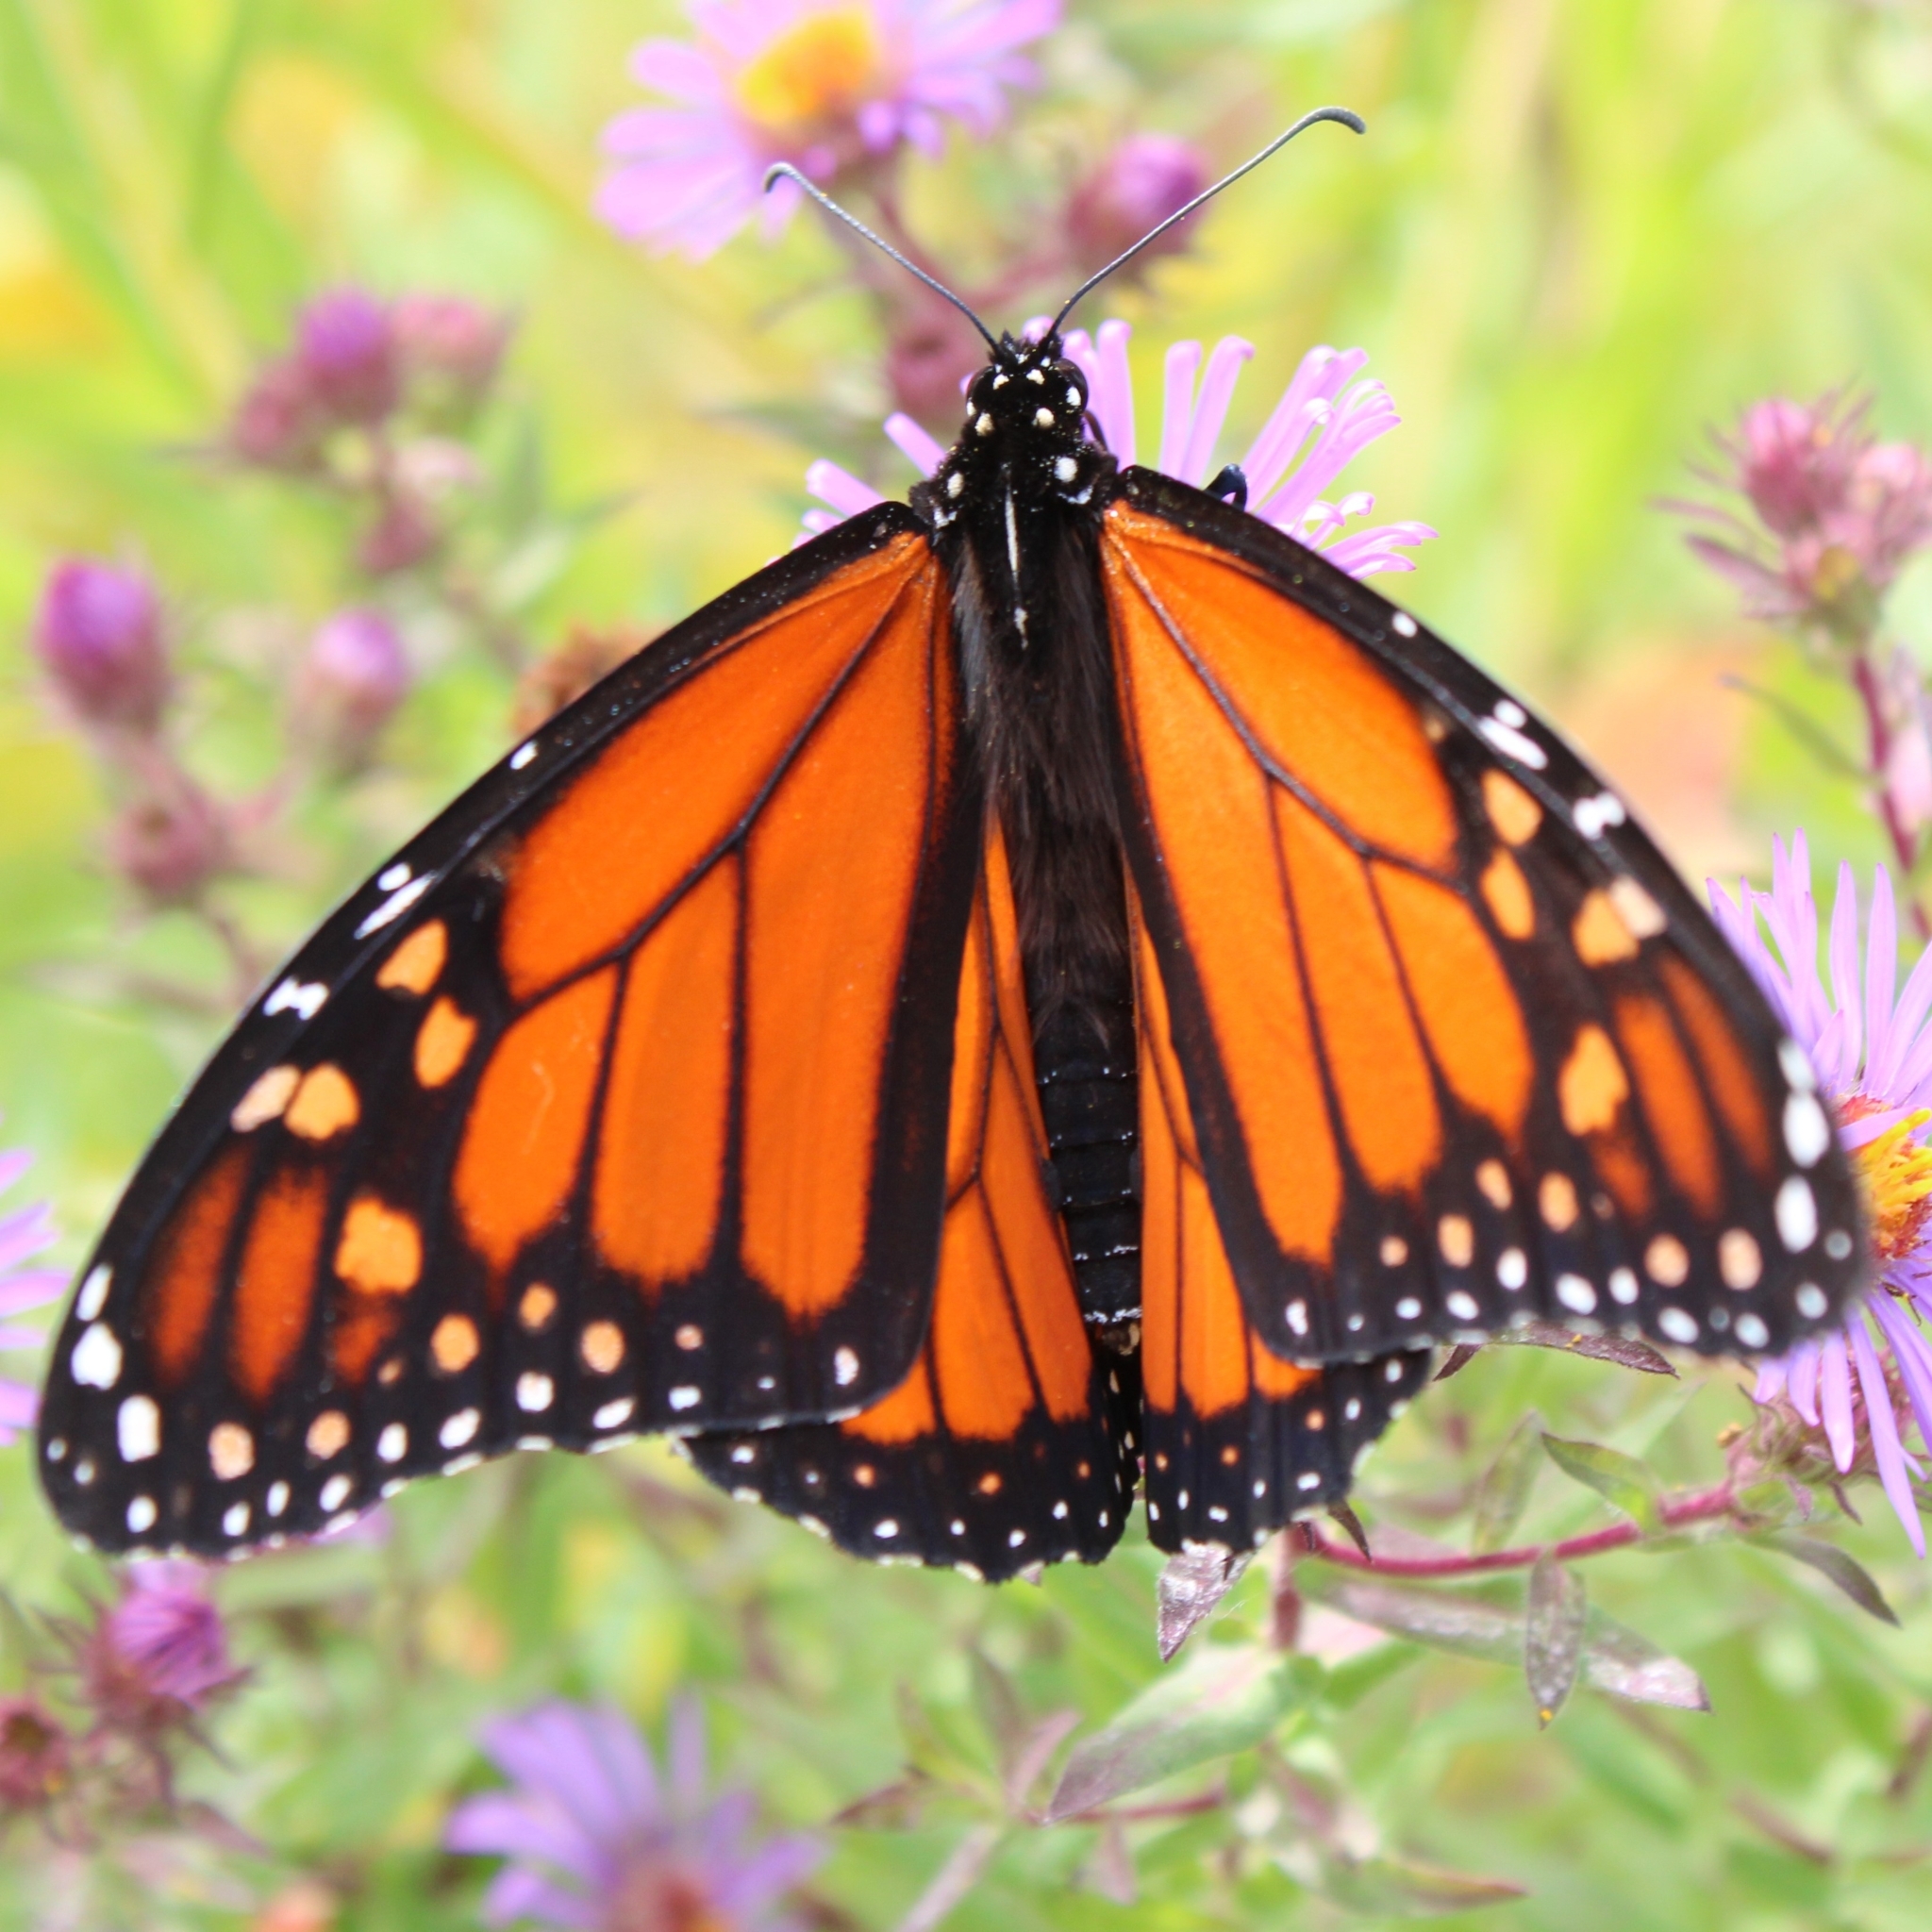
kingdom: Animalia
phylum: Arthropoda
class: Insecta
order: Lepidoptera
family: Nymphalidae
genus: Danaus
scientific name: Danaus plexippus
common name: Monarch
